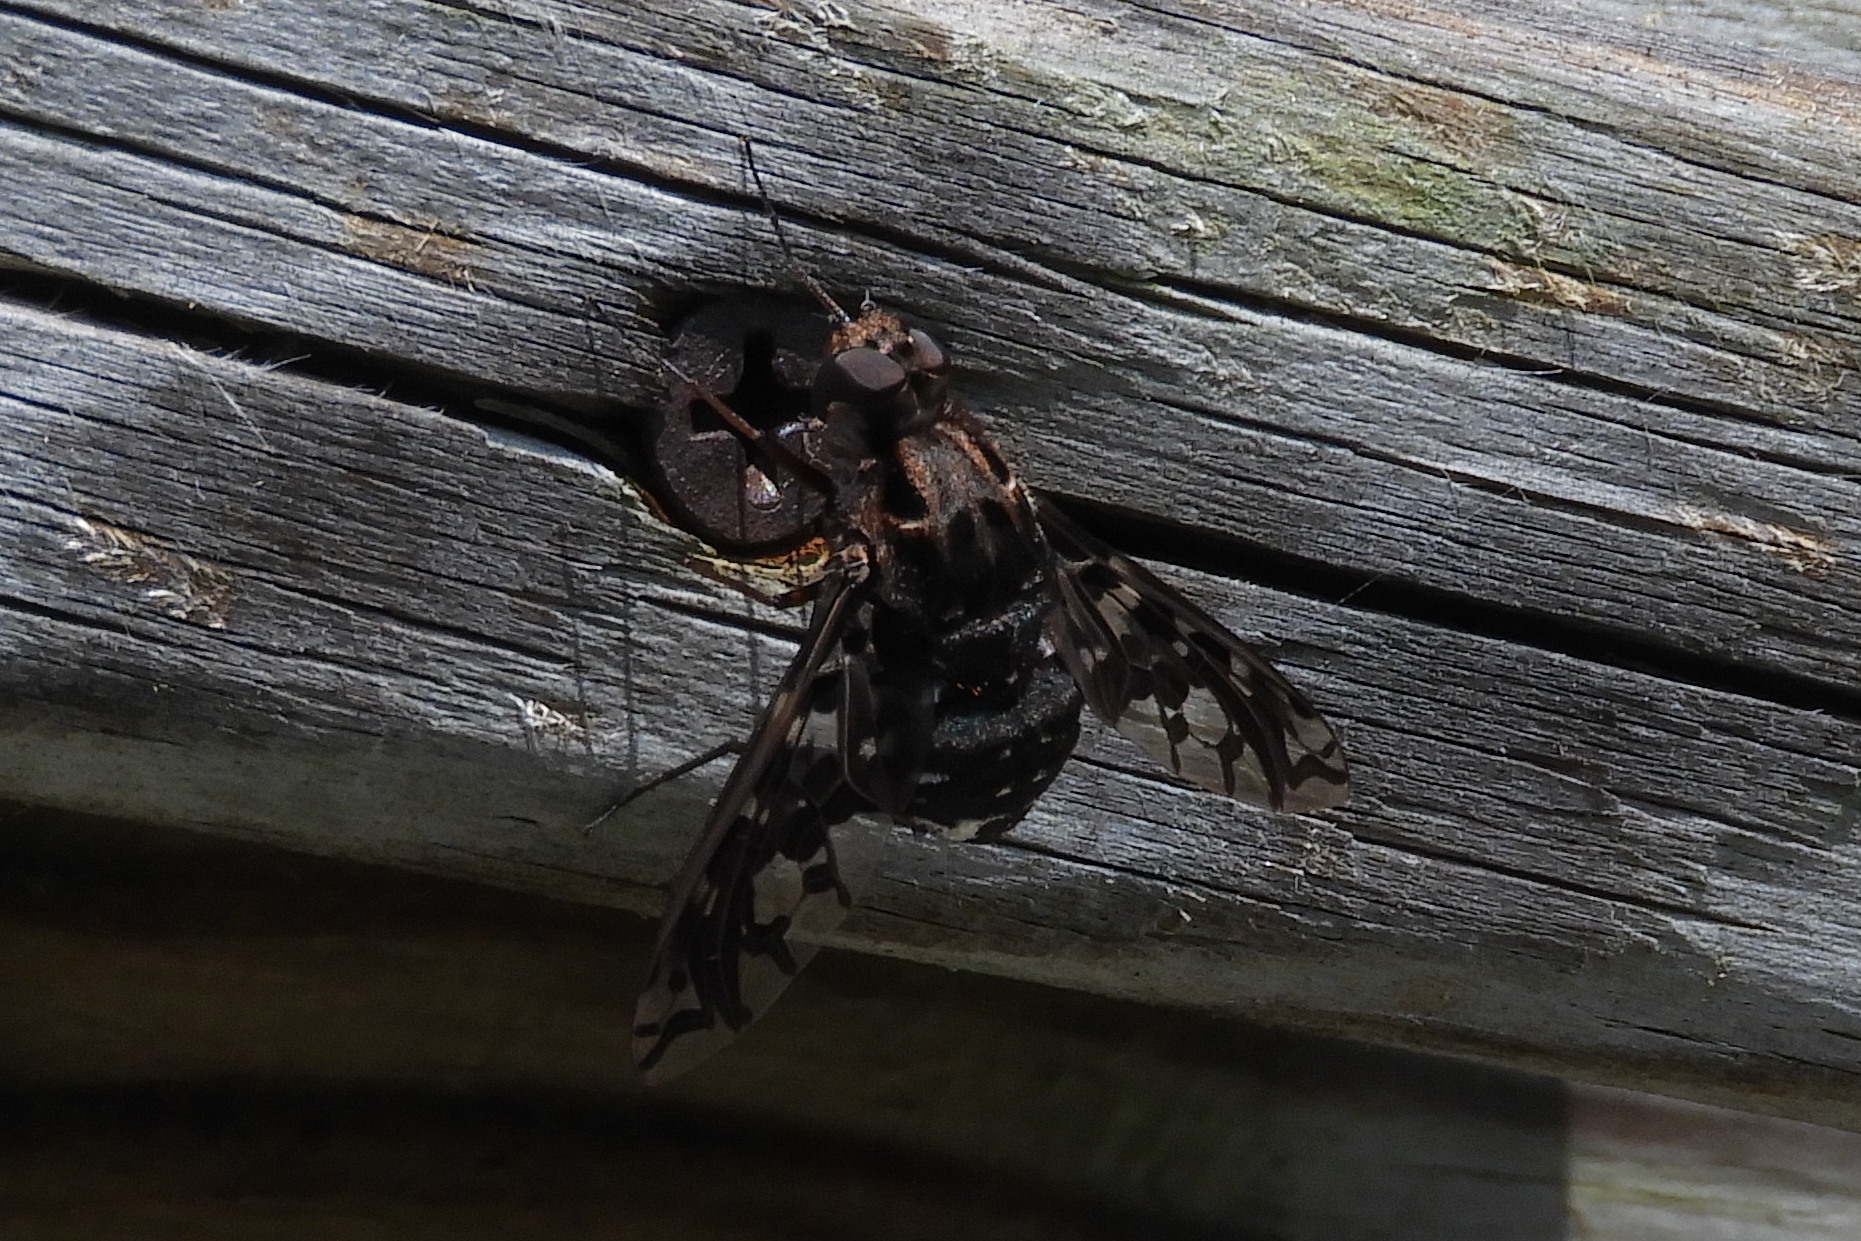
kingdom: Animalia
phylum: Arthropoda
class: Insecta
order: Diptera
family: Bombyliidae
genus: Xenox
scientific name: Xenox tigrinus
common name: Tiger bee fly
